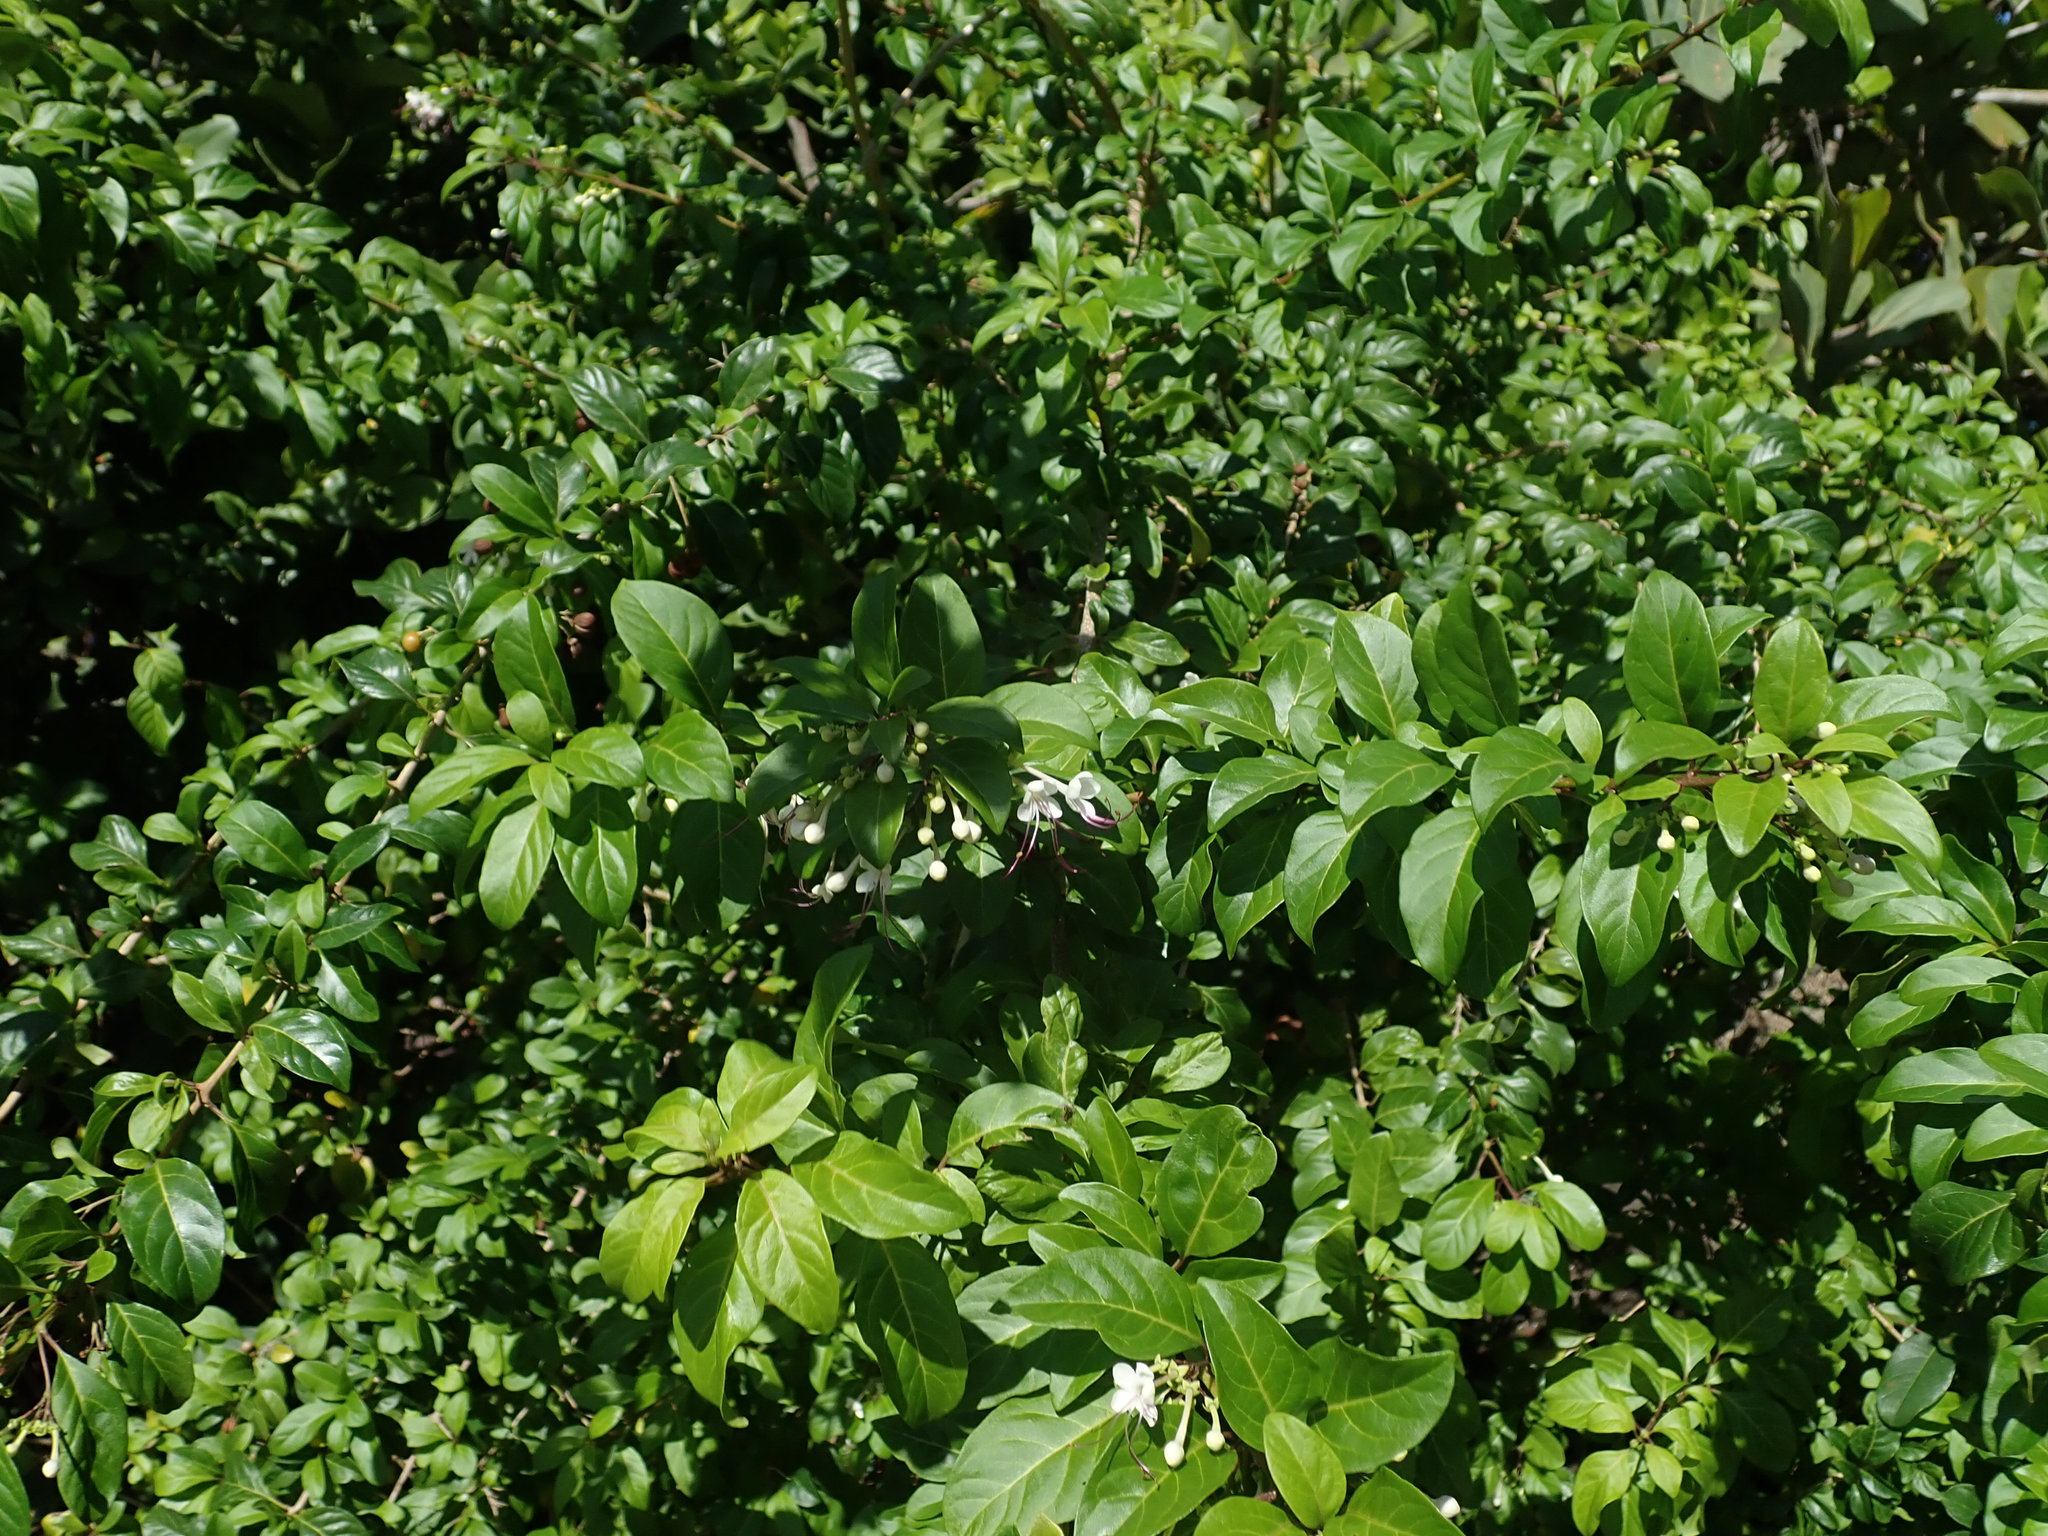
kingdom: Plantae
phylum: Tracheophyta
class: Magnoliopsida
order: Lamiales
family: Lamiaceae
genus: Volkameria
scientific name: Volkameria aculeata
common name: Prickly myrtle
